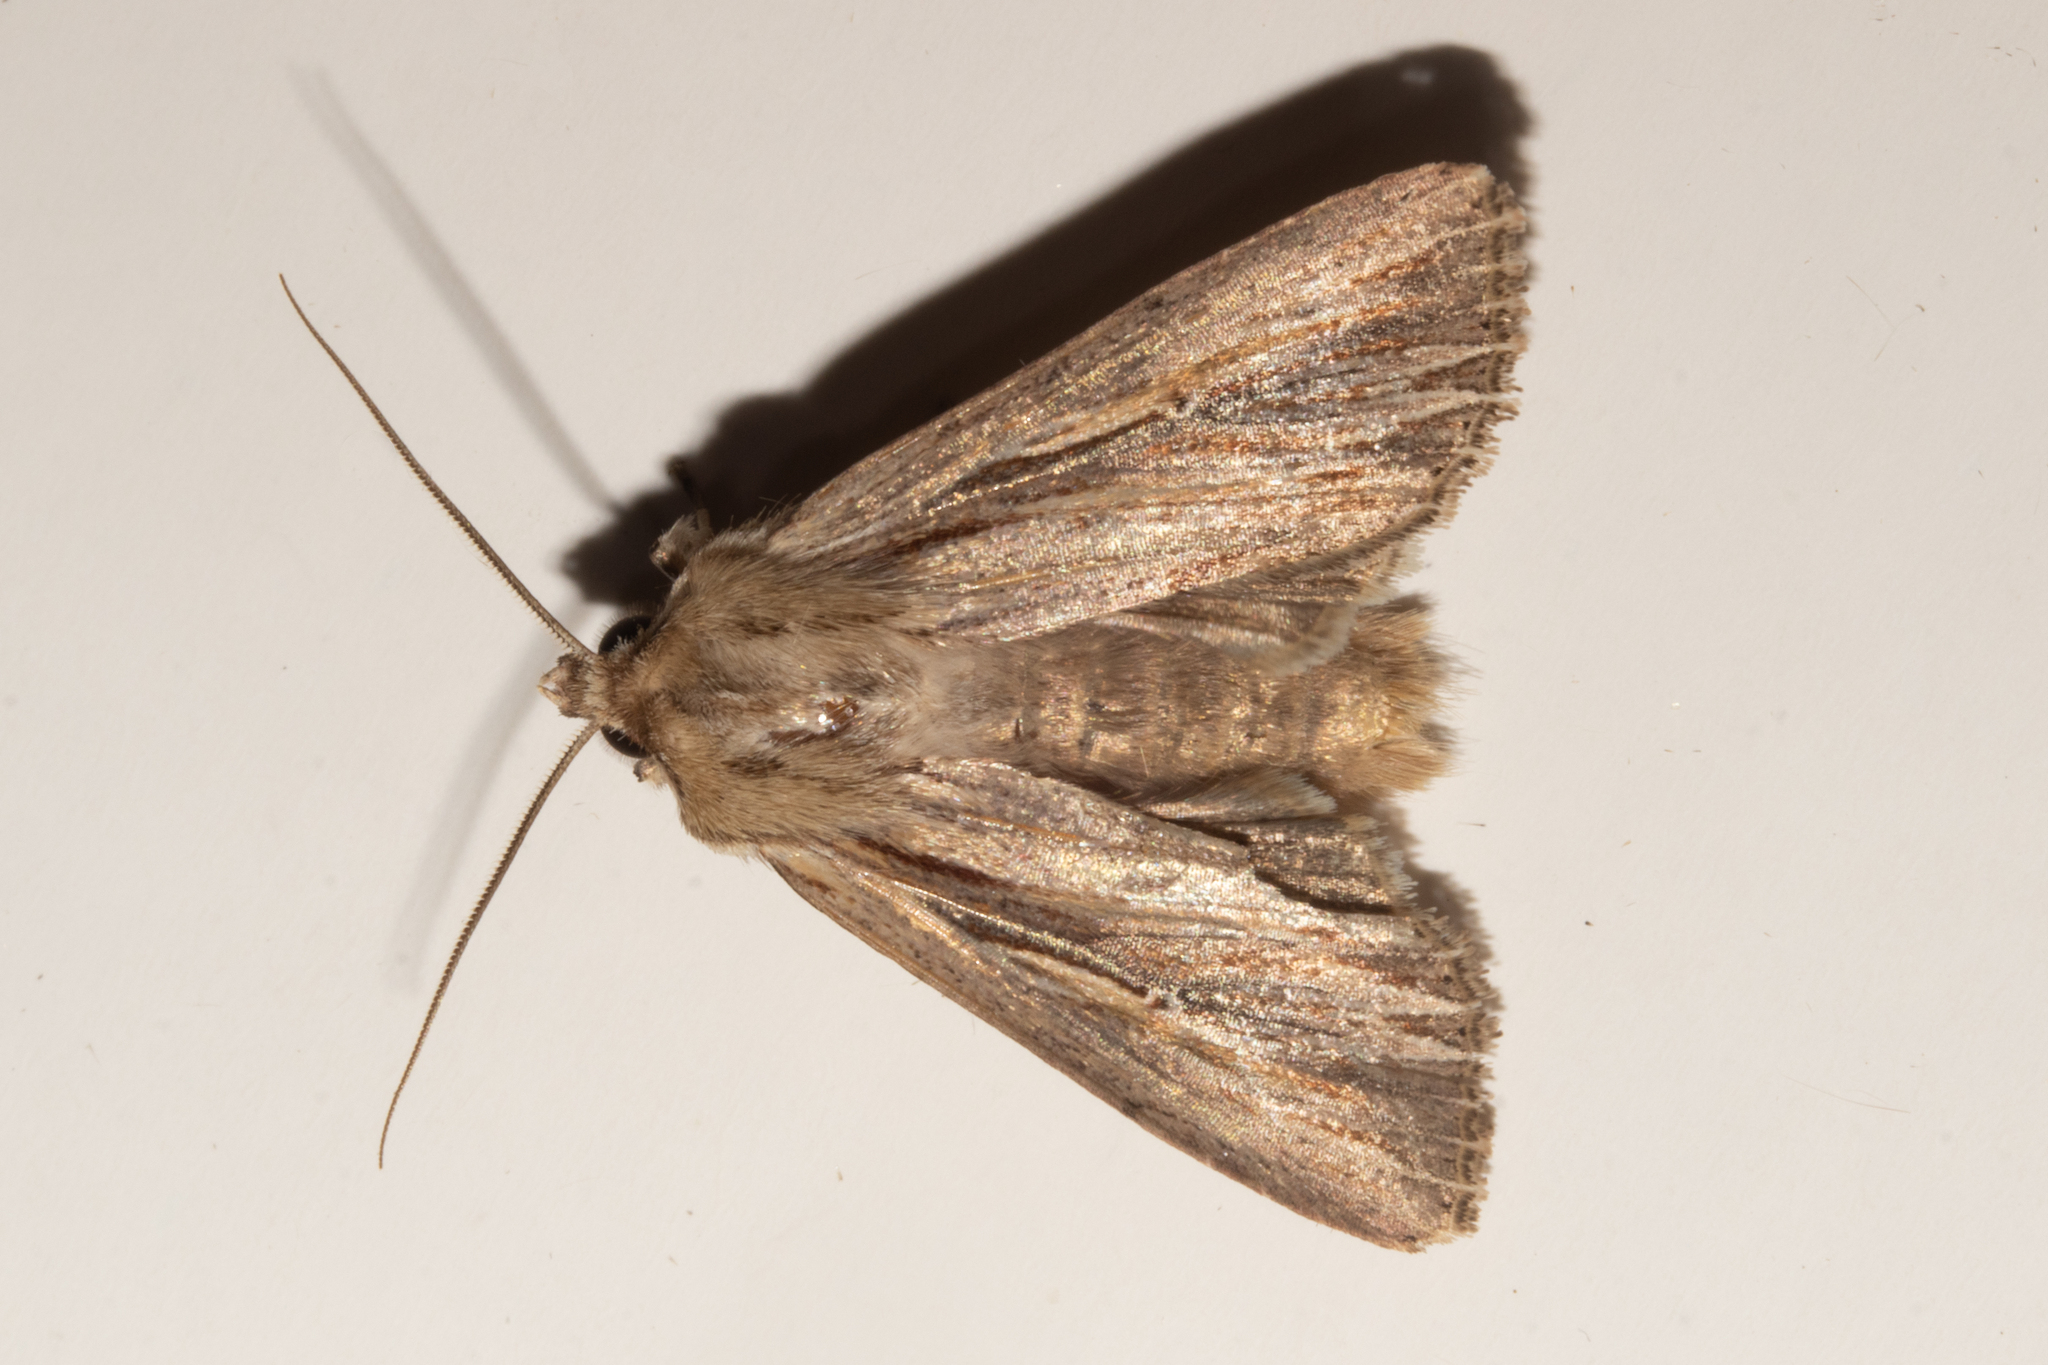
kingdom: Animalia
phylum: Arthropoda
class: Insecta
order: Lepidoptera
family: Noctuidae
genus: Persectania
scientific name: Persectania aversa
